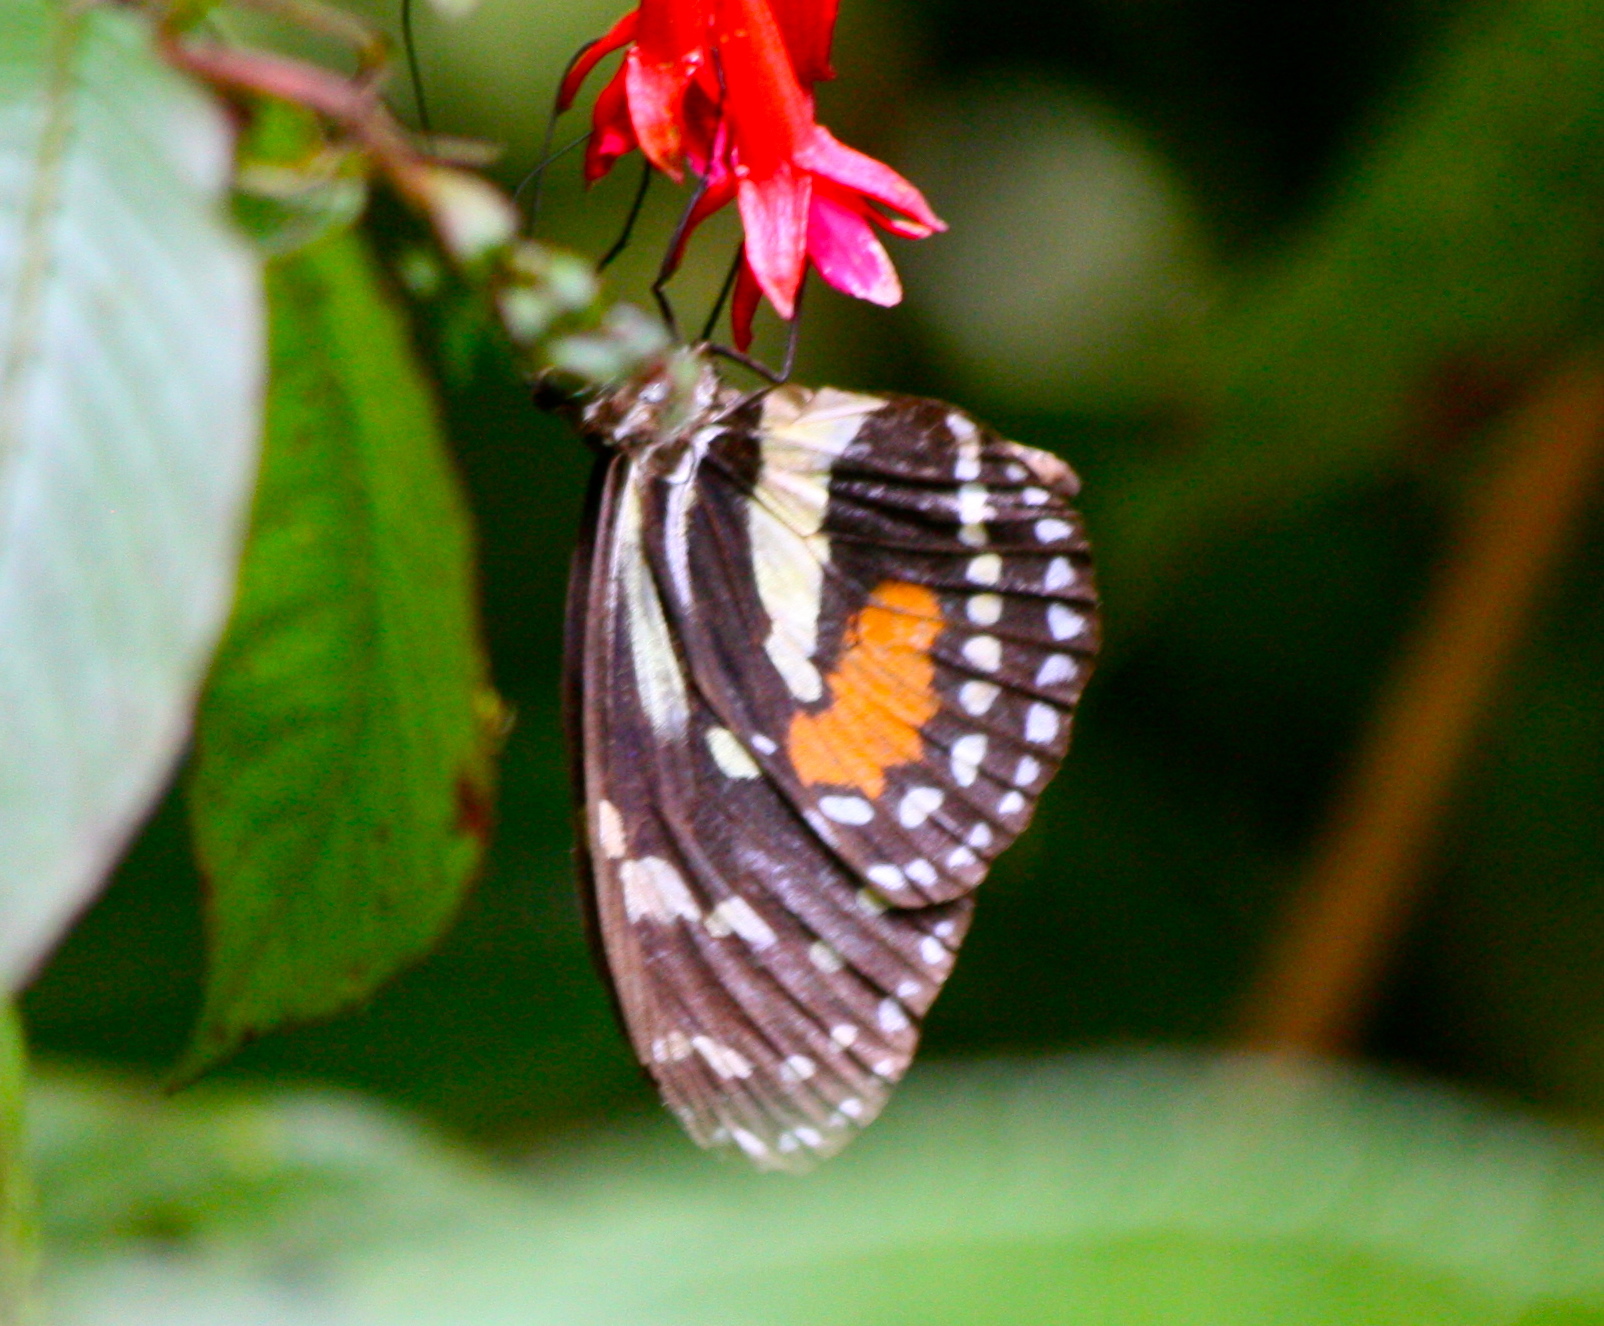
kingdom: Animalia
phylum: Arthropoda
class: Insecta
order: Lepidoptera
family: Nymphalidae
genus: Elzunia
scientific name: Elzunia humboldtii
